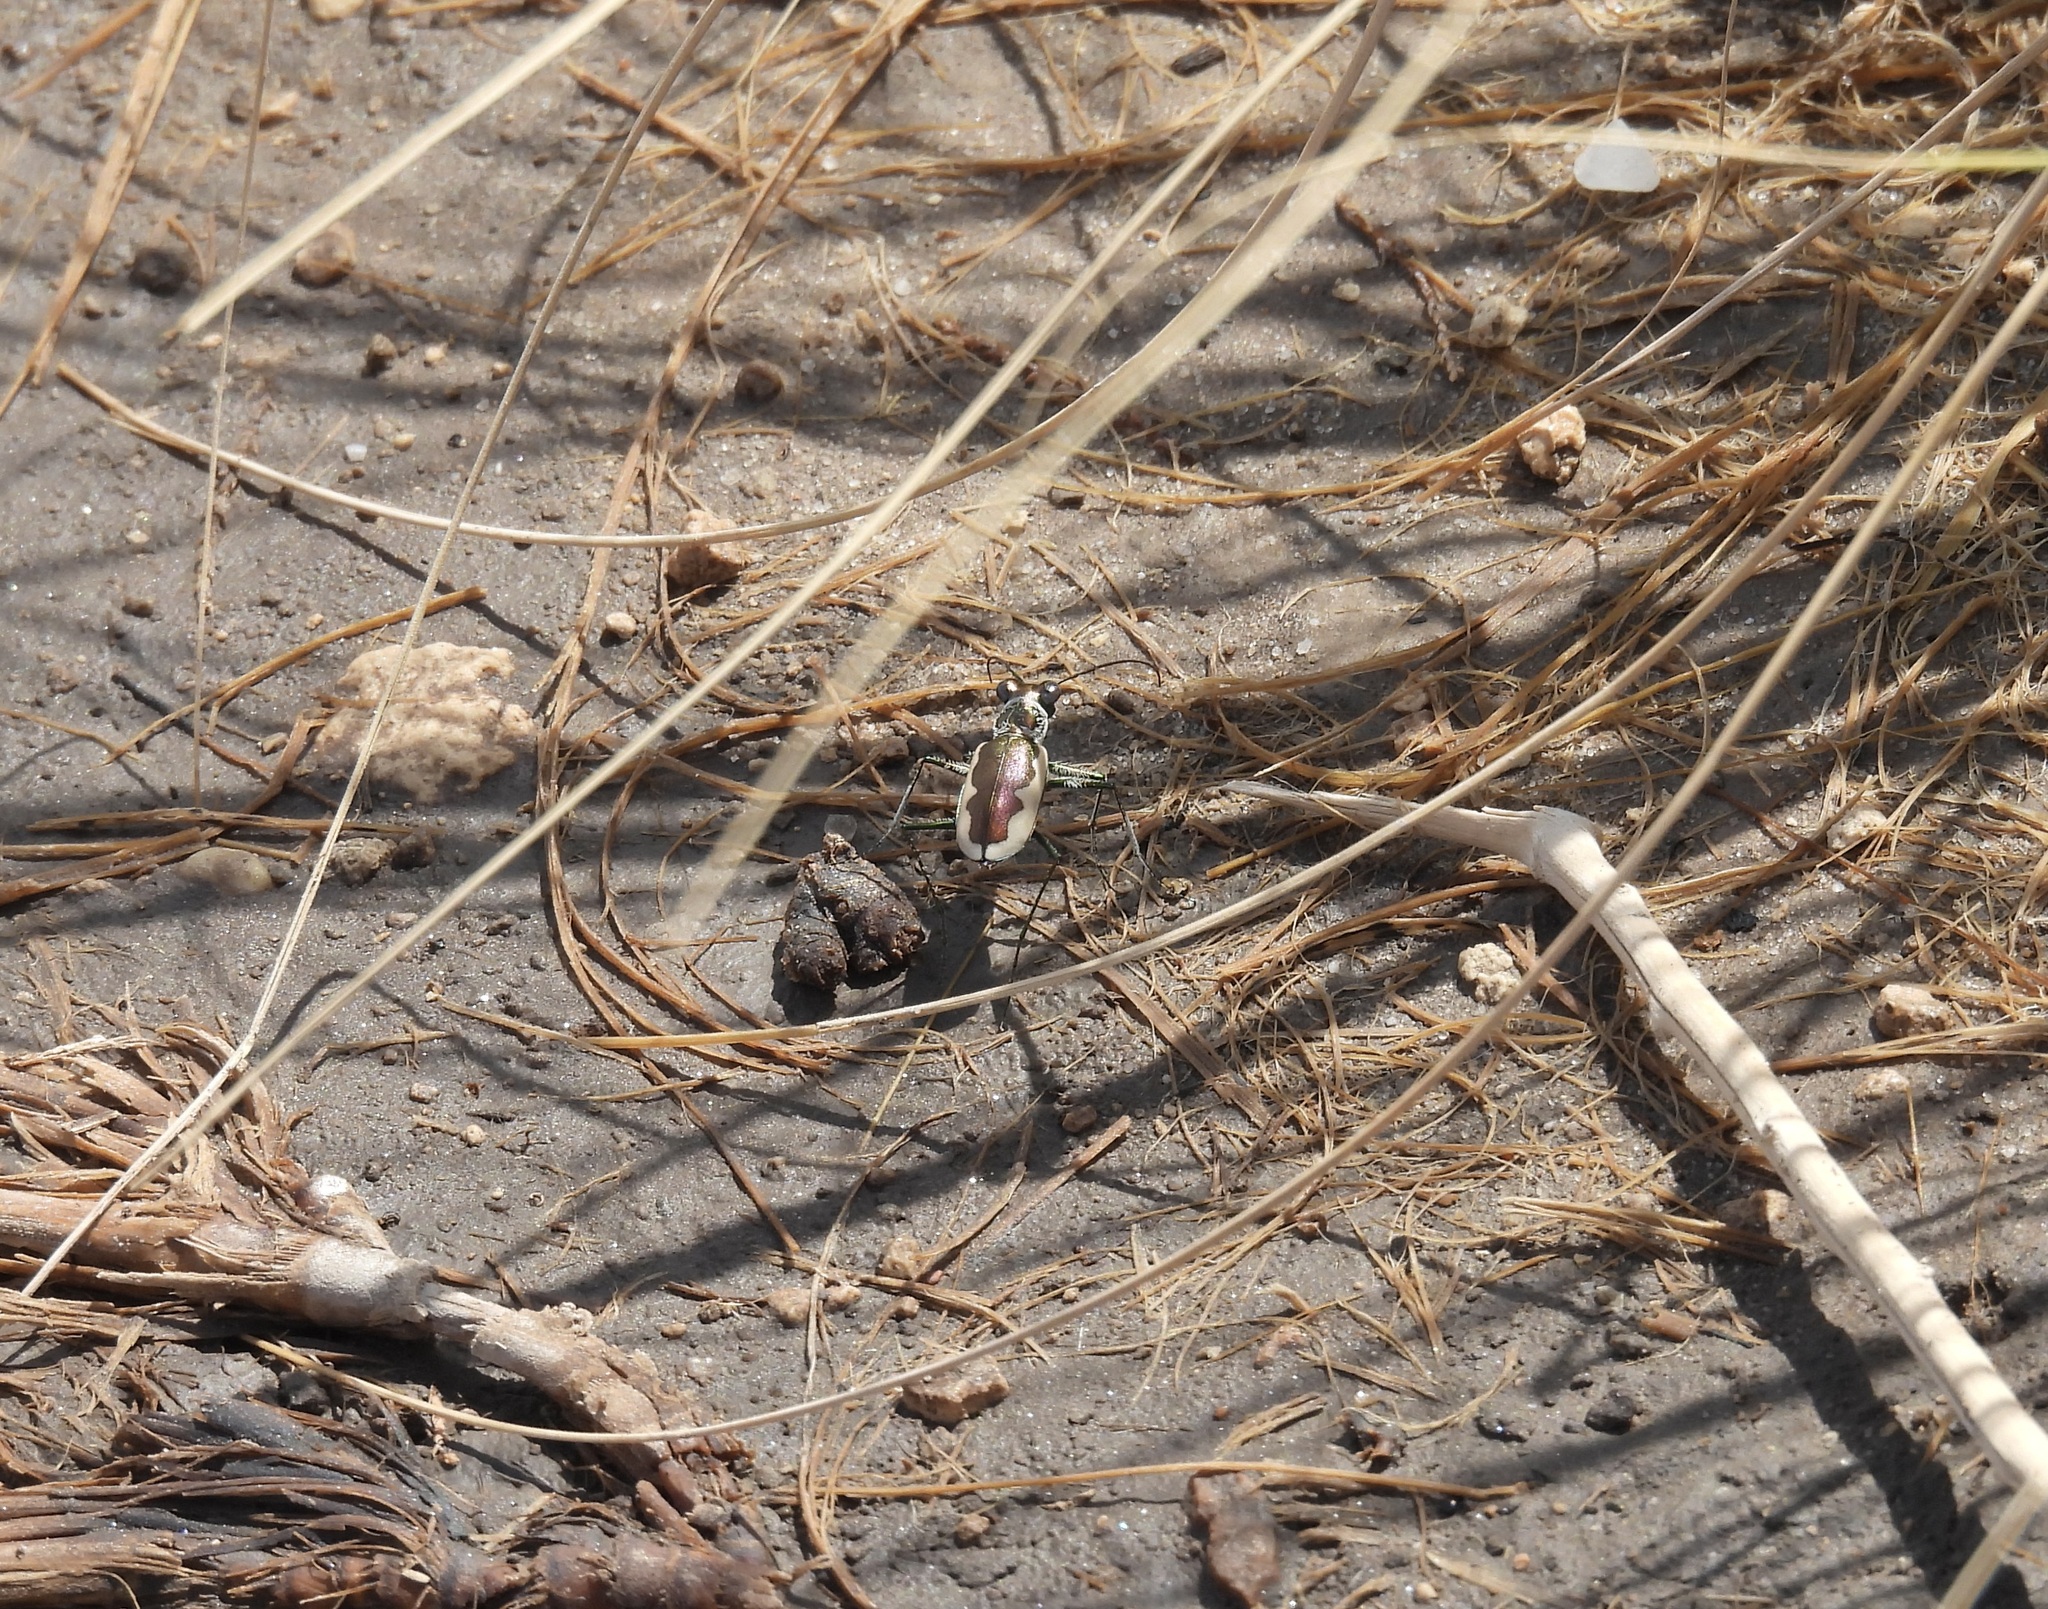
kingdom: Animalia
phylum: Arthropoda
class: Insecta
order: Coleoptera
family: Carabidae
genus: Eunota
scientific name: Eunota circumpicta
